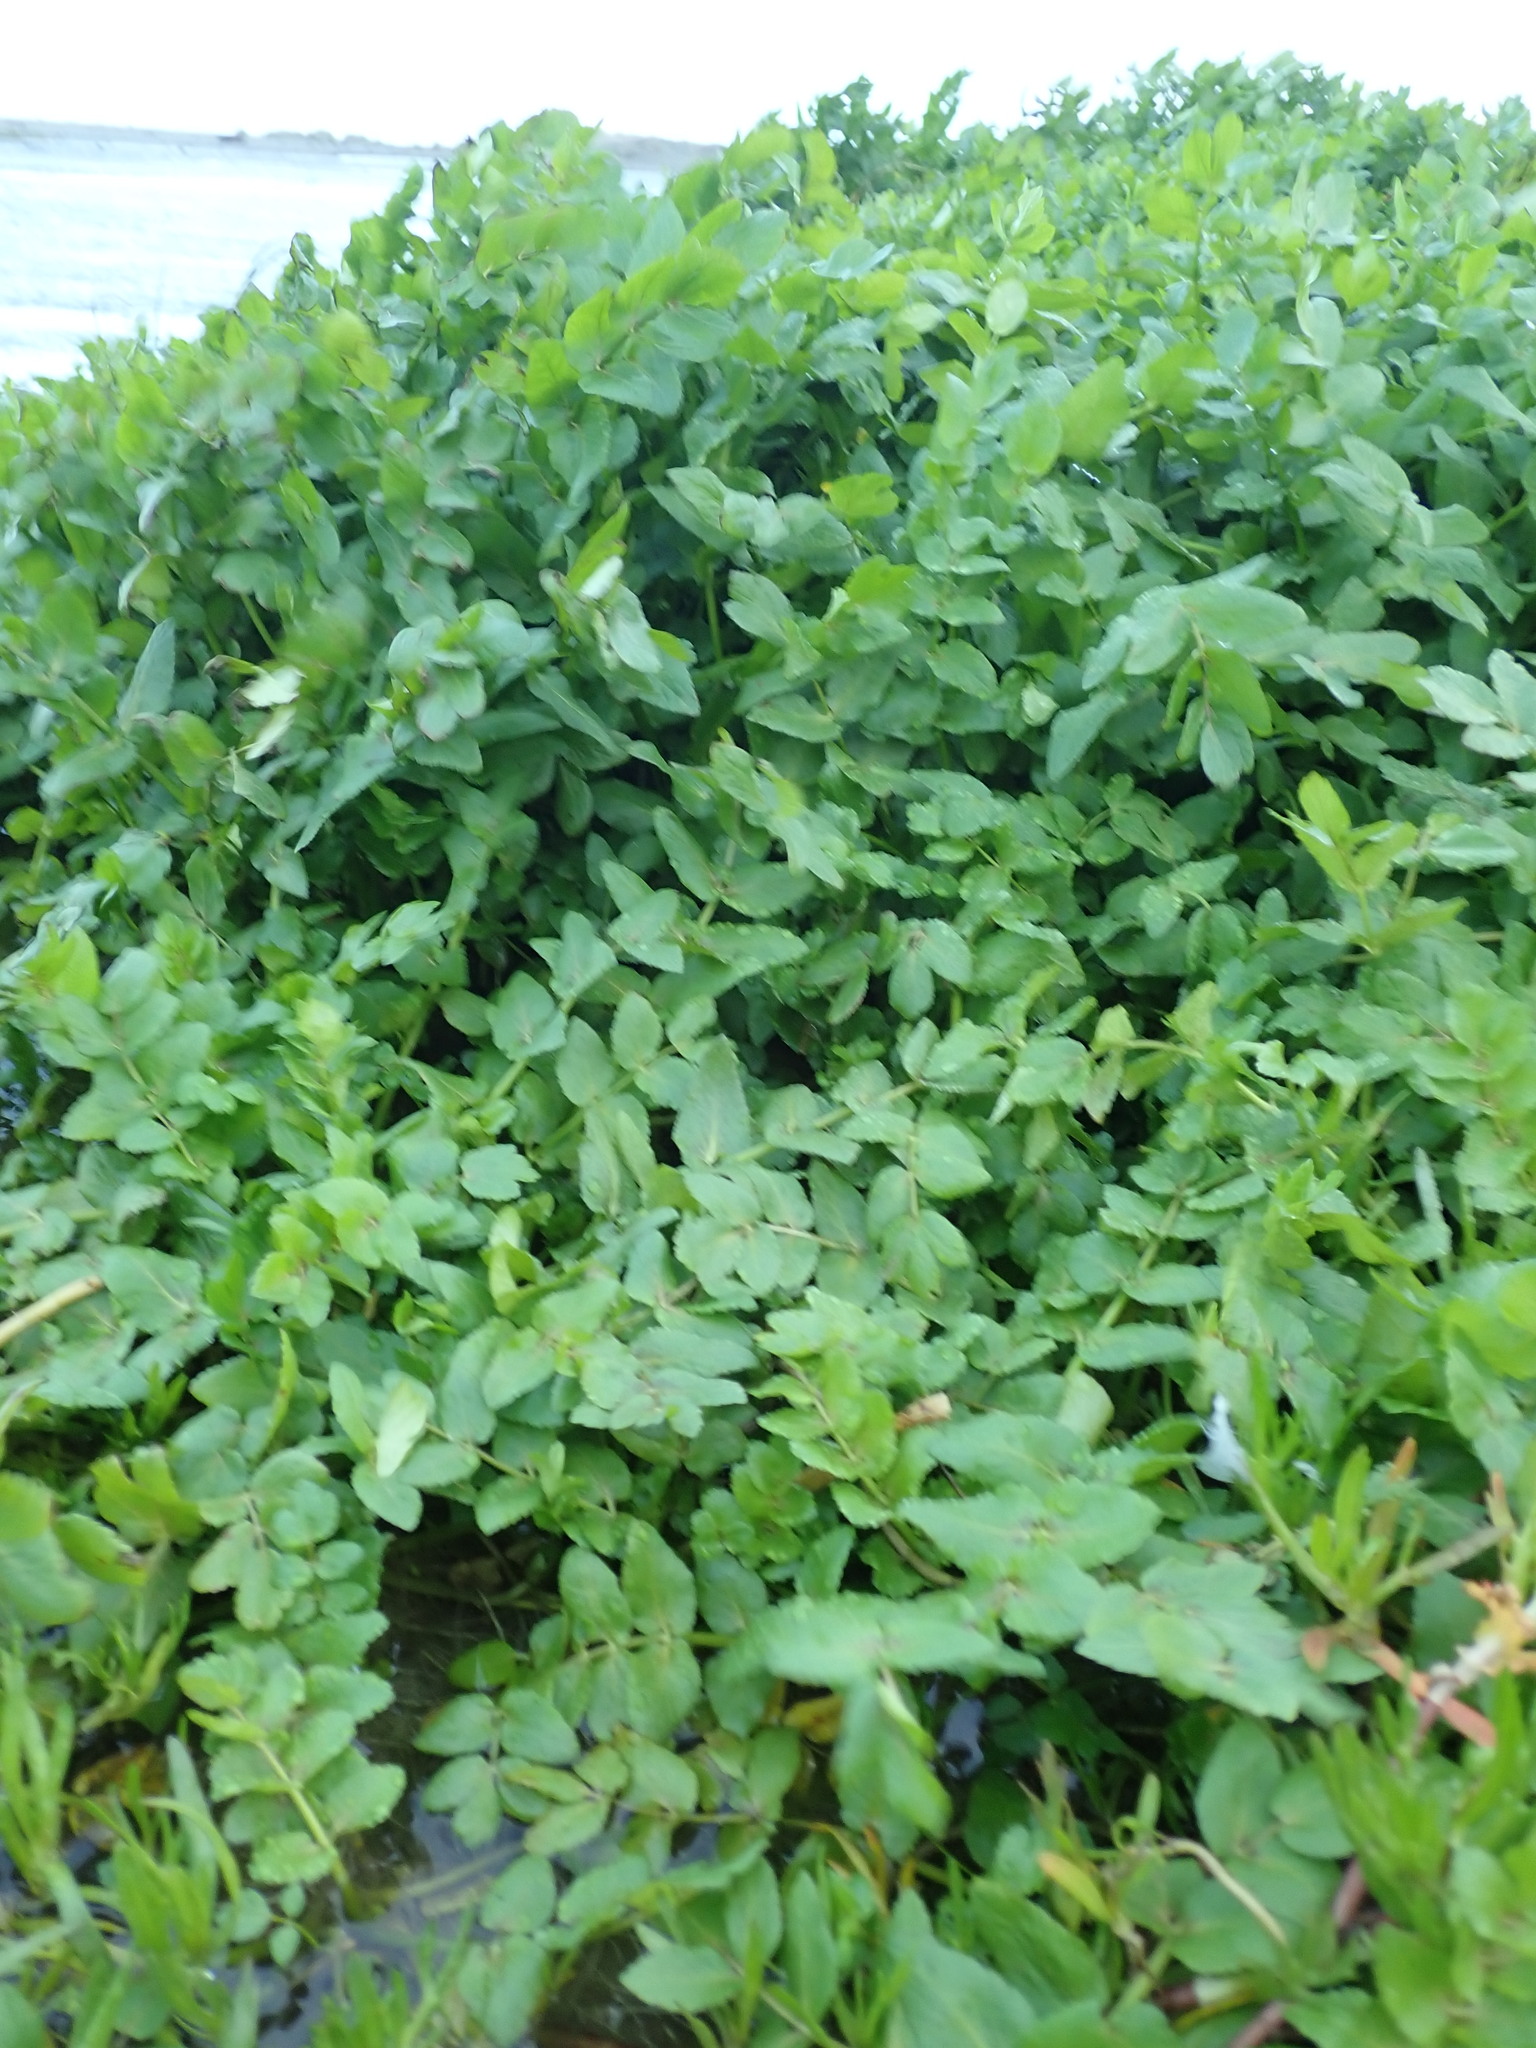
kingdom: Plantae
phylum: Tracheophyta
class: Magnoliopsida
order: Apiales
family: Apiaceae
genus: Helosciadium
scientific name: Helosciadium nodiflorum
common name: Fool's-watercress
